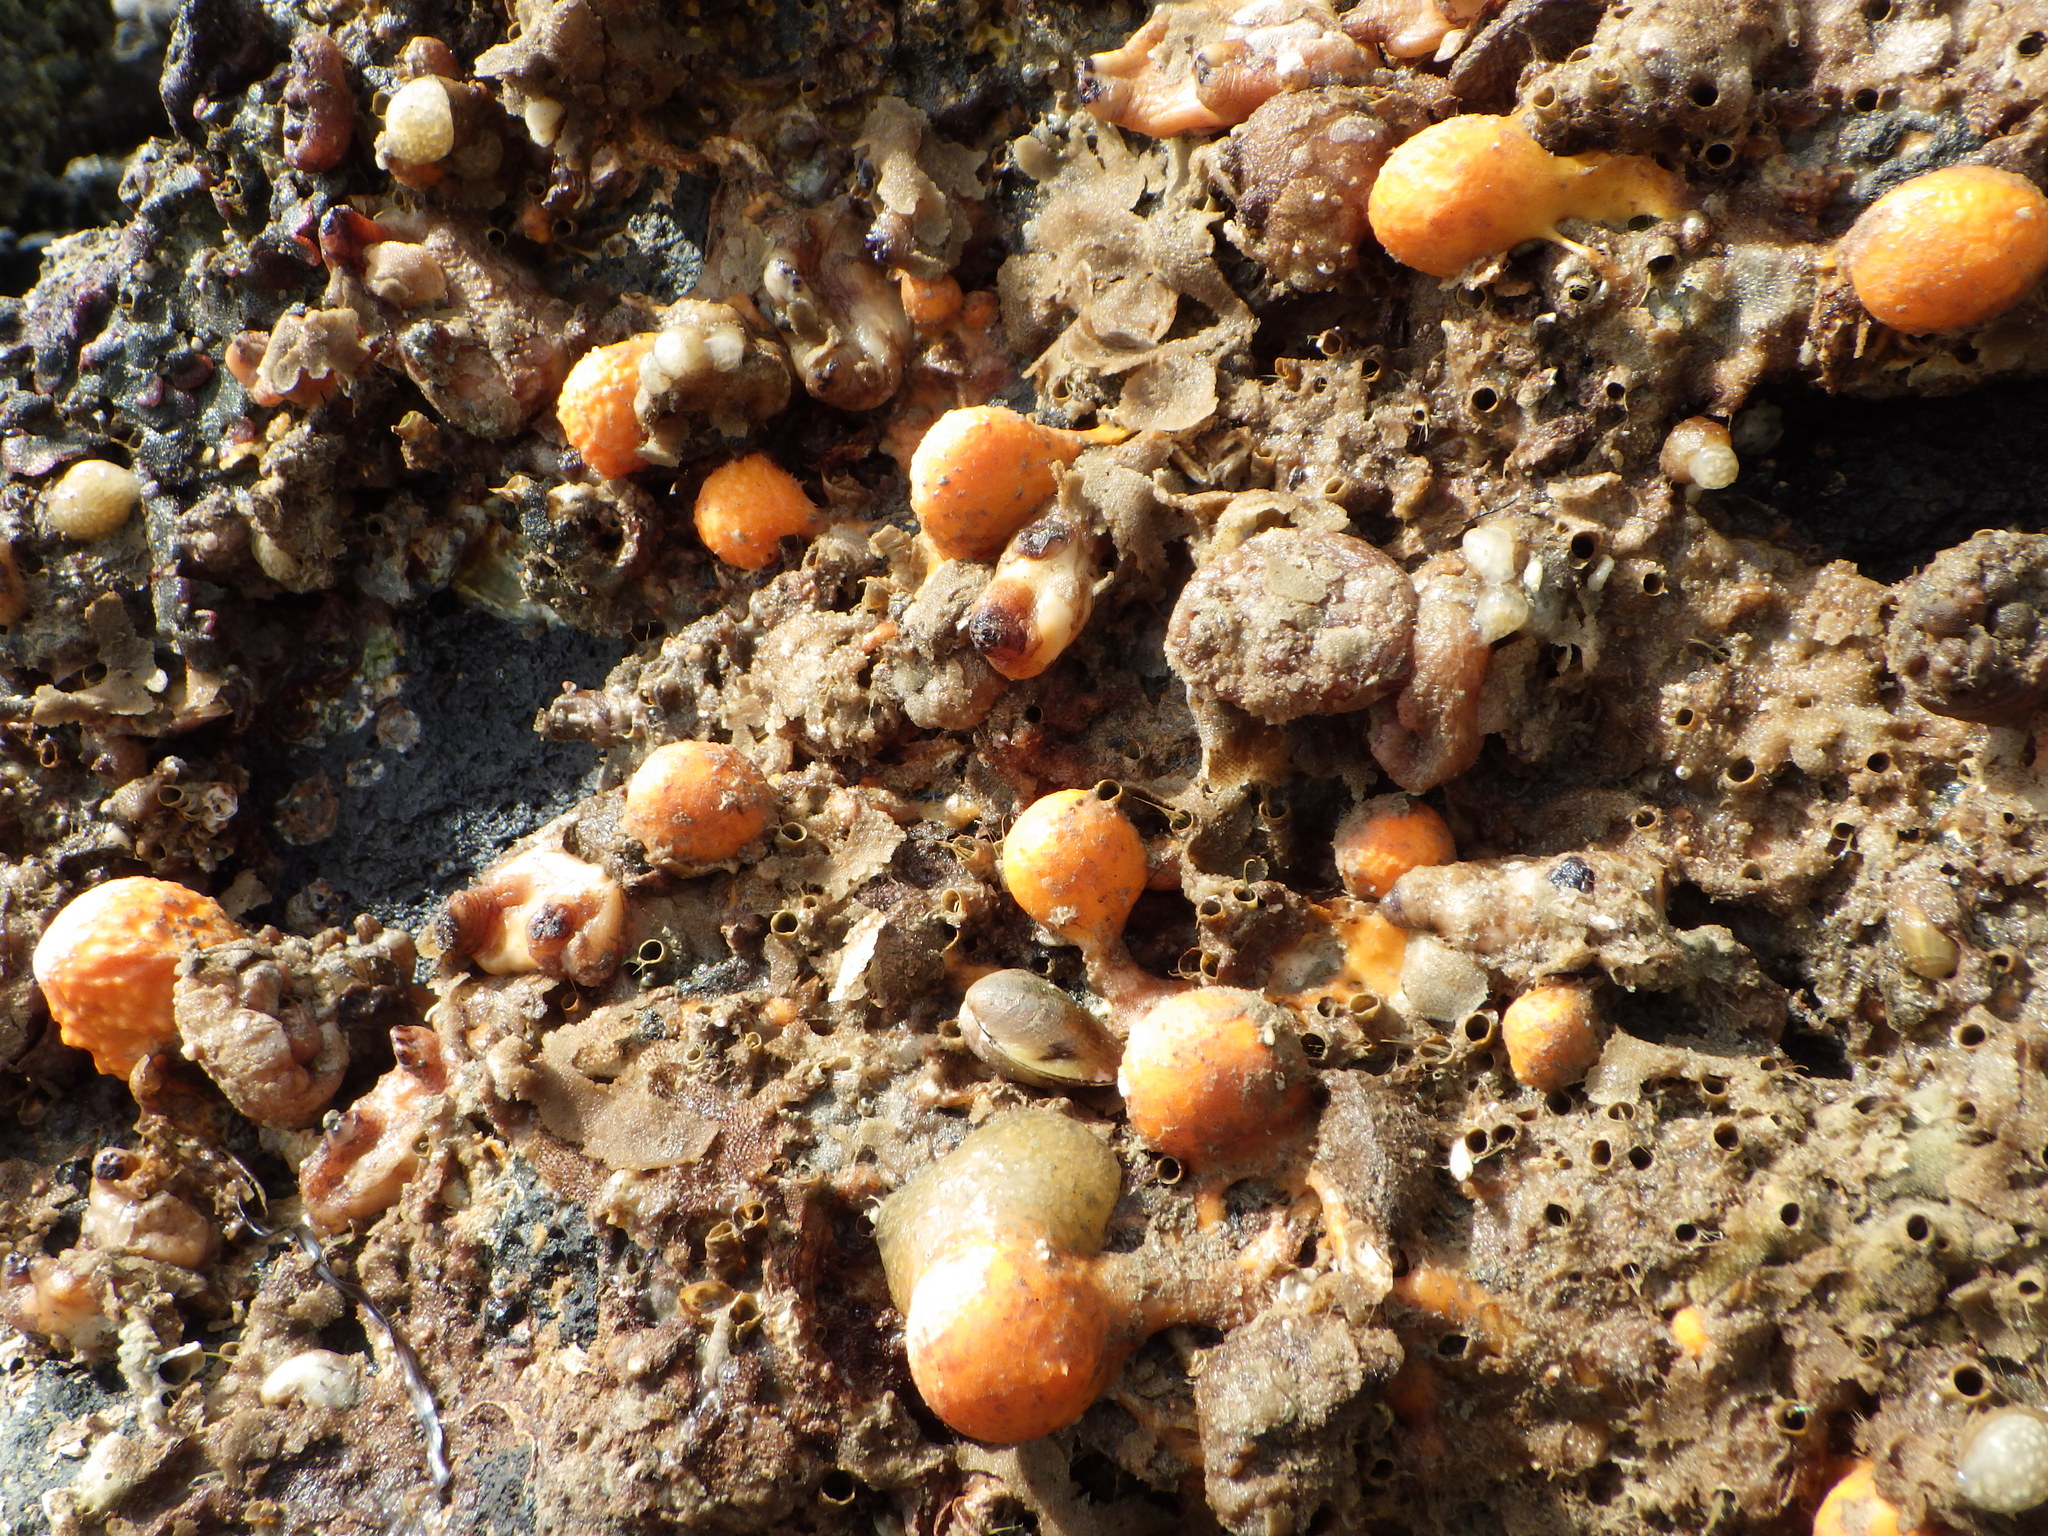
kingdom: Animalia
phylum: Porifera
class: Demospongiae
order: Tethyida
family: Tethyidae
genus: Tethya
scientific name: Tethya burtoni
